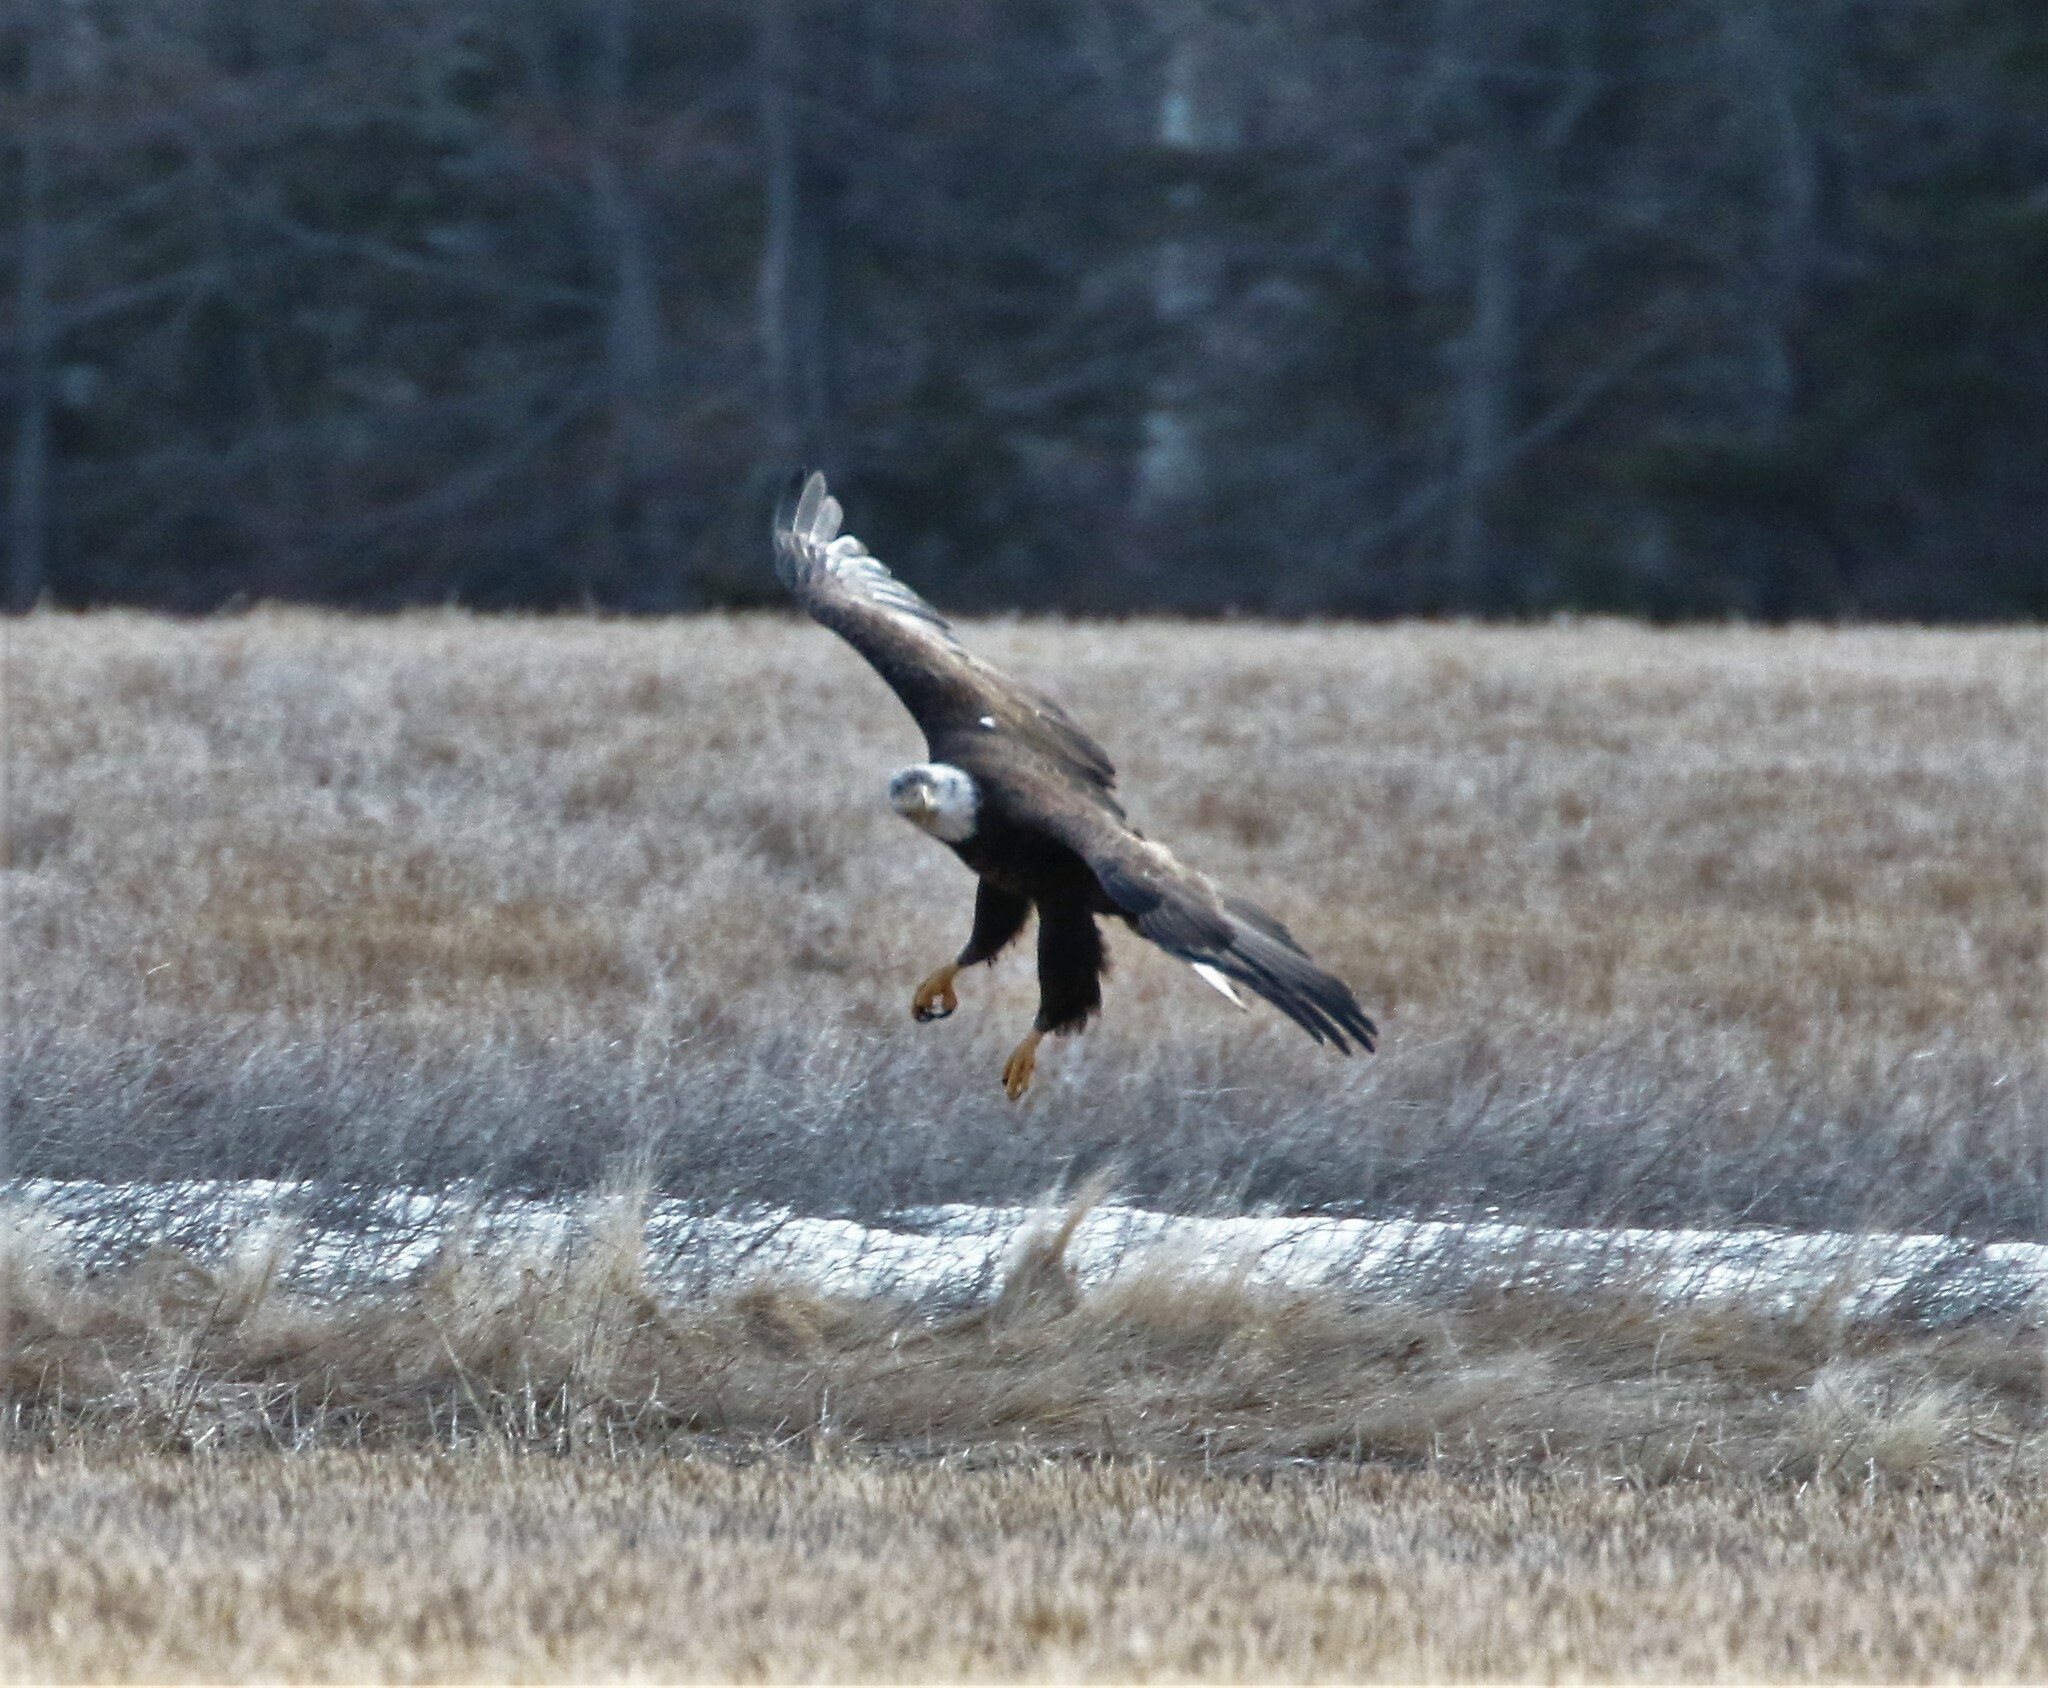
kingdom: Animalia
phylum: Chordata
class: Aves
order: Accipitriformes
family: Accipitridae
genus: Haliaeetus
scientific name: Haliaeetus leucocephalus
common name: Bald eagle
